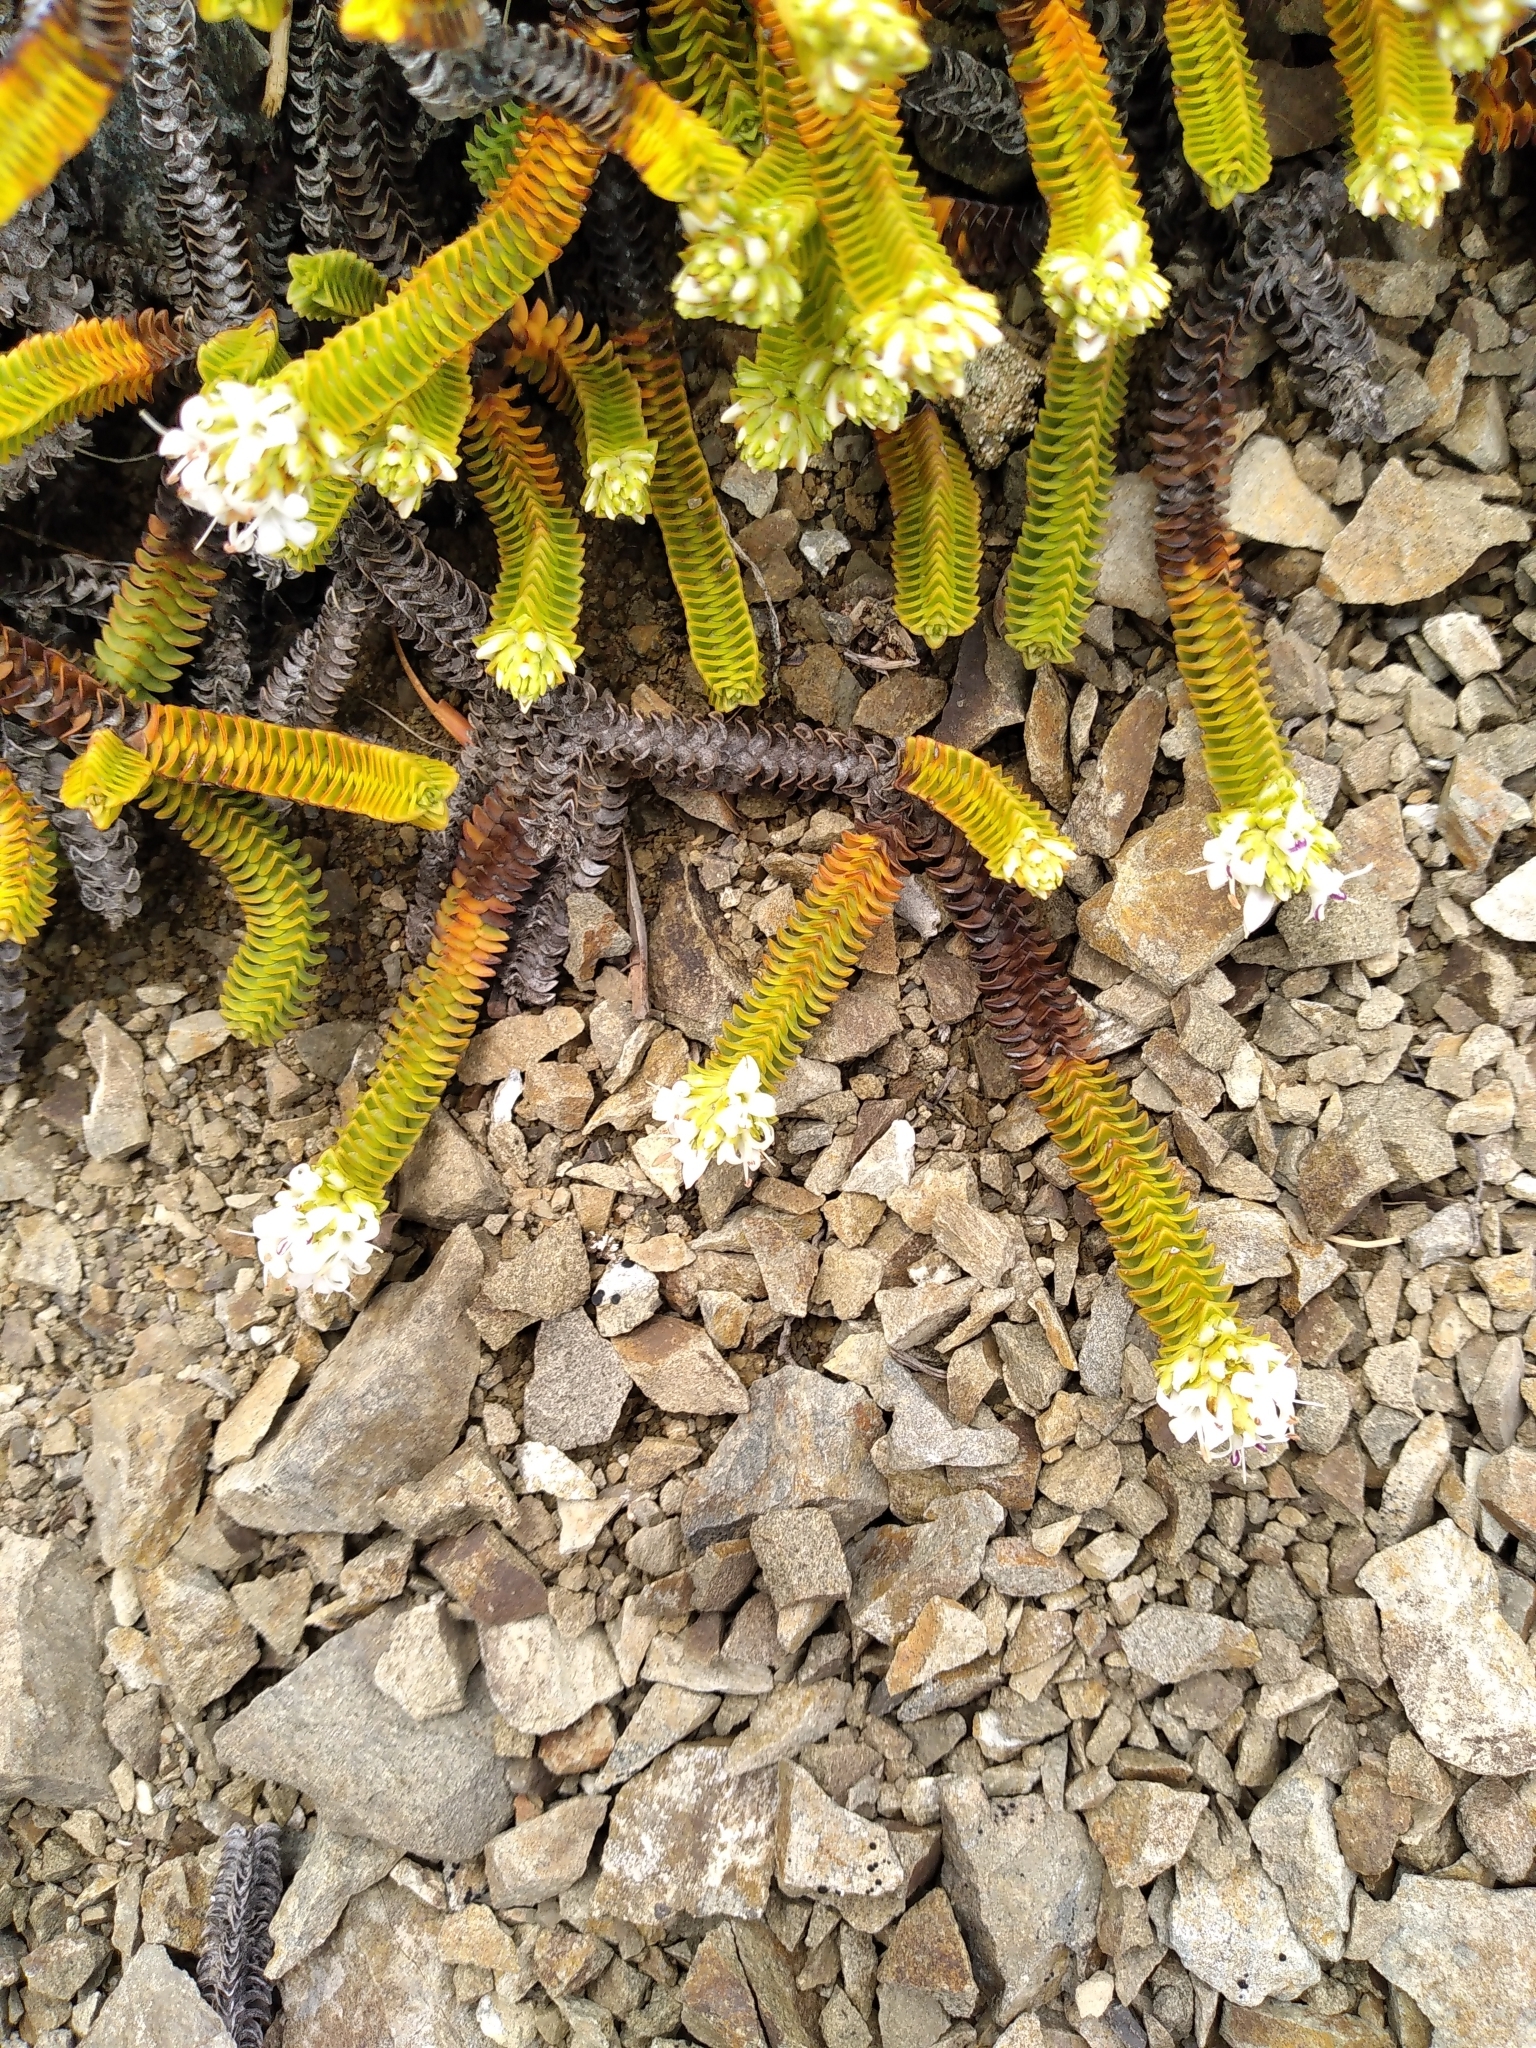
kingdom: Plantae
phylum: Tracheophyta
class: Magnoliopsida
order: Lamiales
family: Plantaginaceae
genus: Veronica
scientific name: Veronica epacridea
